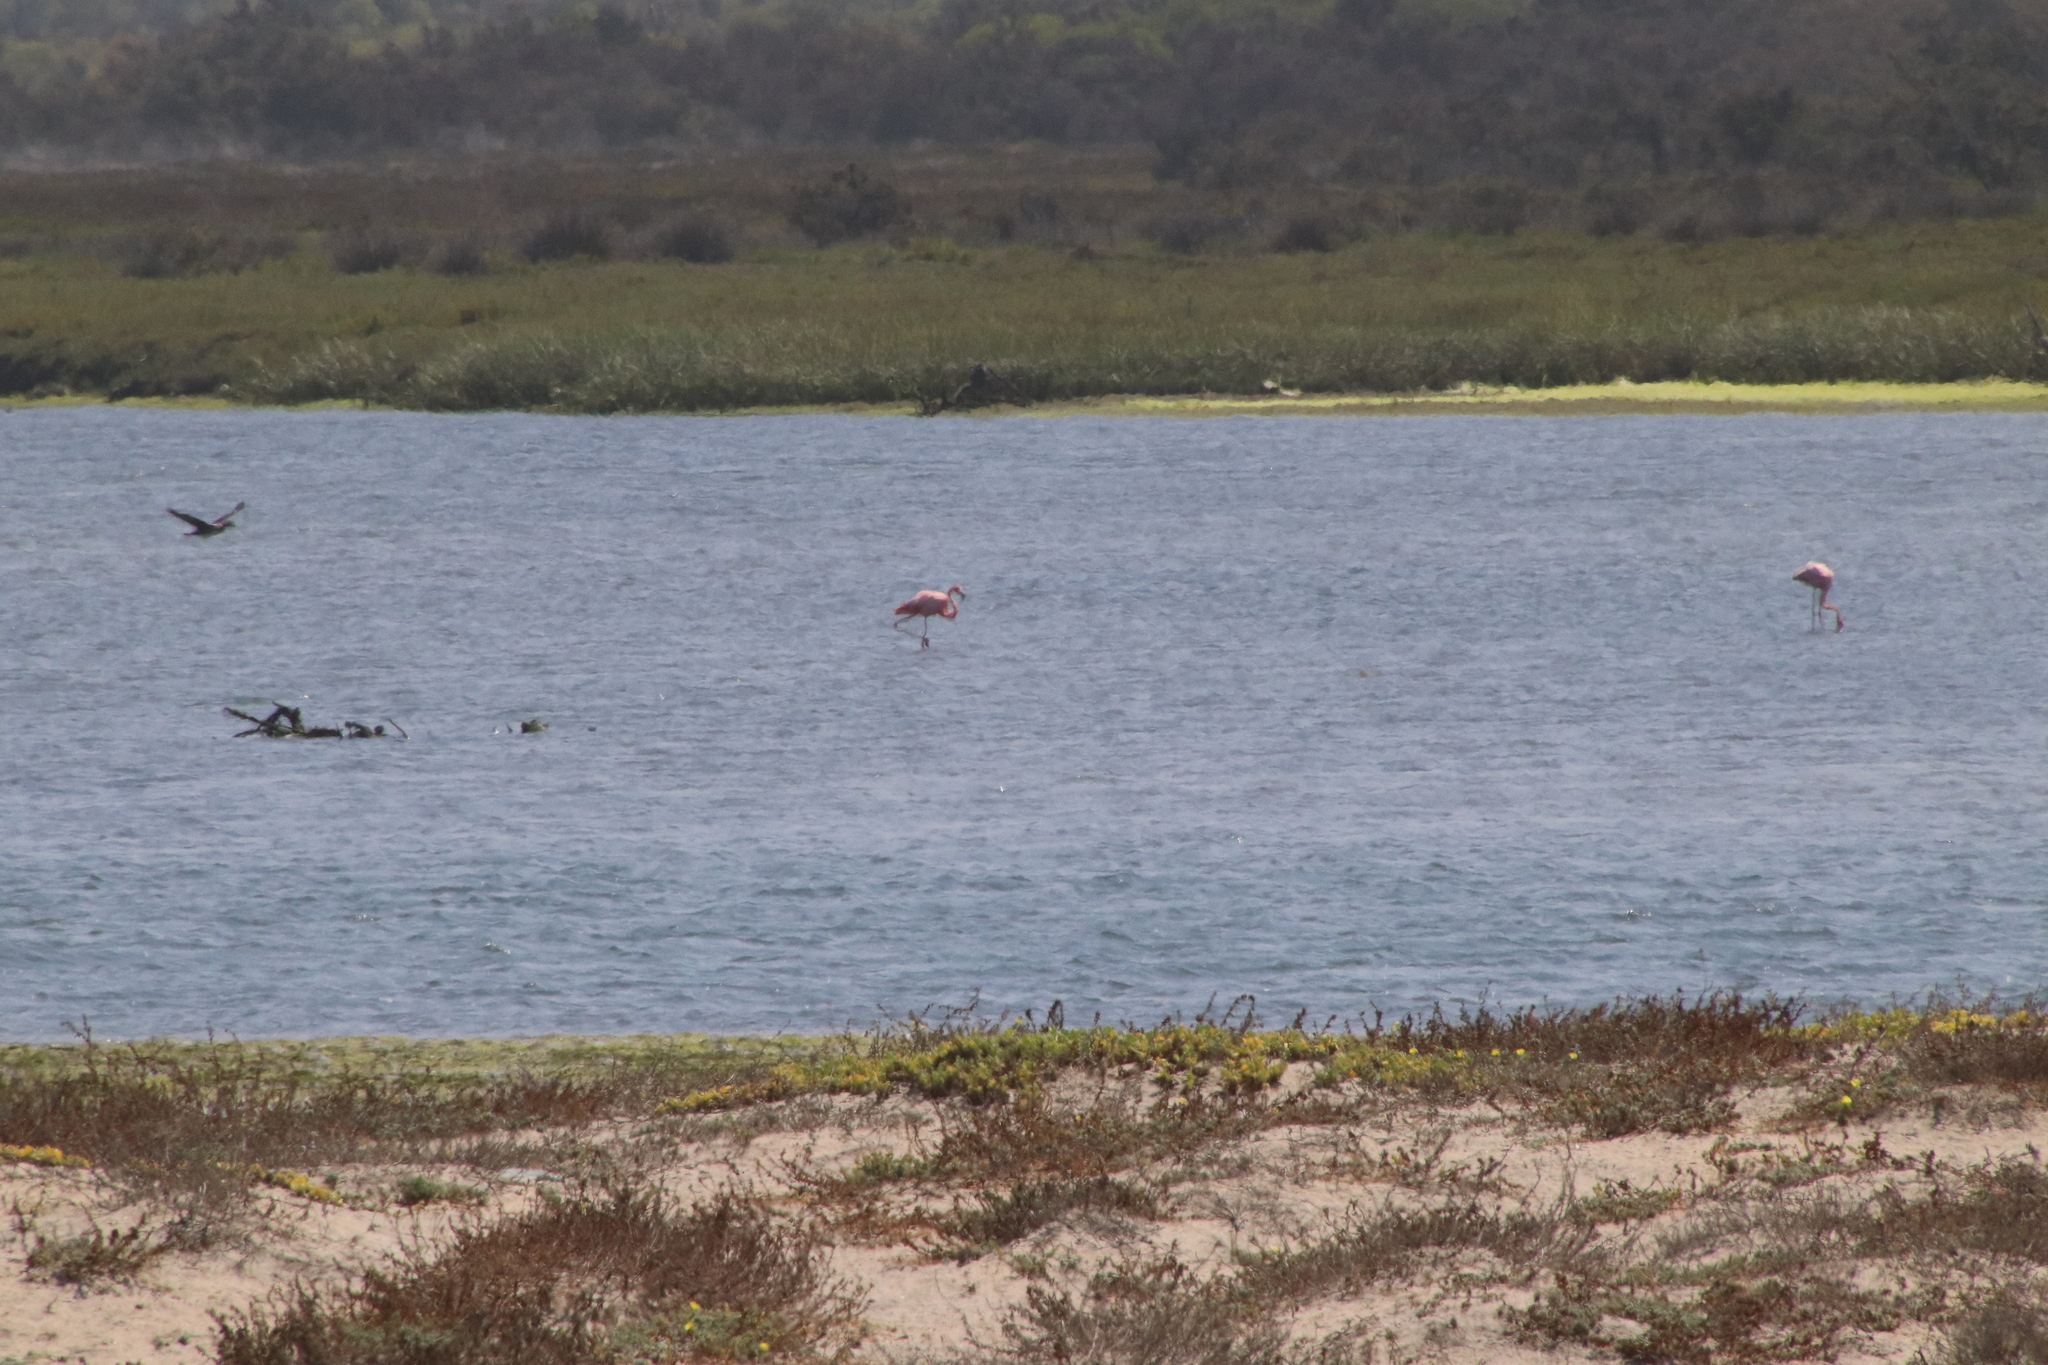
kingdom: Animalia
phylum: Chordata
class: Aves
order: Phoenicopteriformes
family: Phoenicopteridae
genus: Phoenicopterus
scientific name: Phoenicopterus ruber
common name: American flamingo
